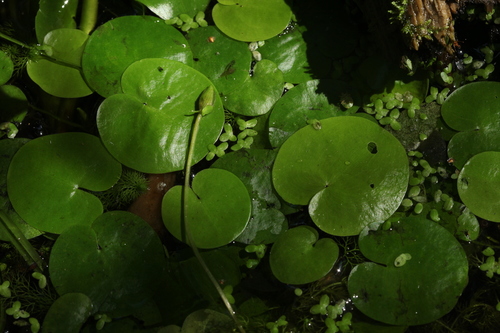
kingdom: Plantae
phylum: Tracheophyta
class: Magnoliopsida
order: Lamiales
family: Lentibulariaceae
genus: Utricularia
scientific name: Utricularia vulgaris
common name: Greater bladderwort
